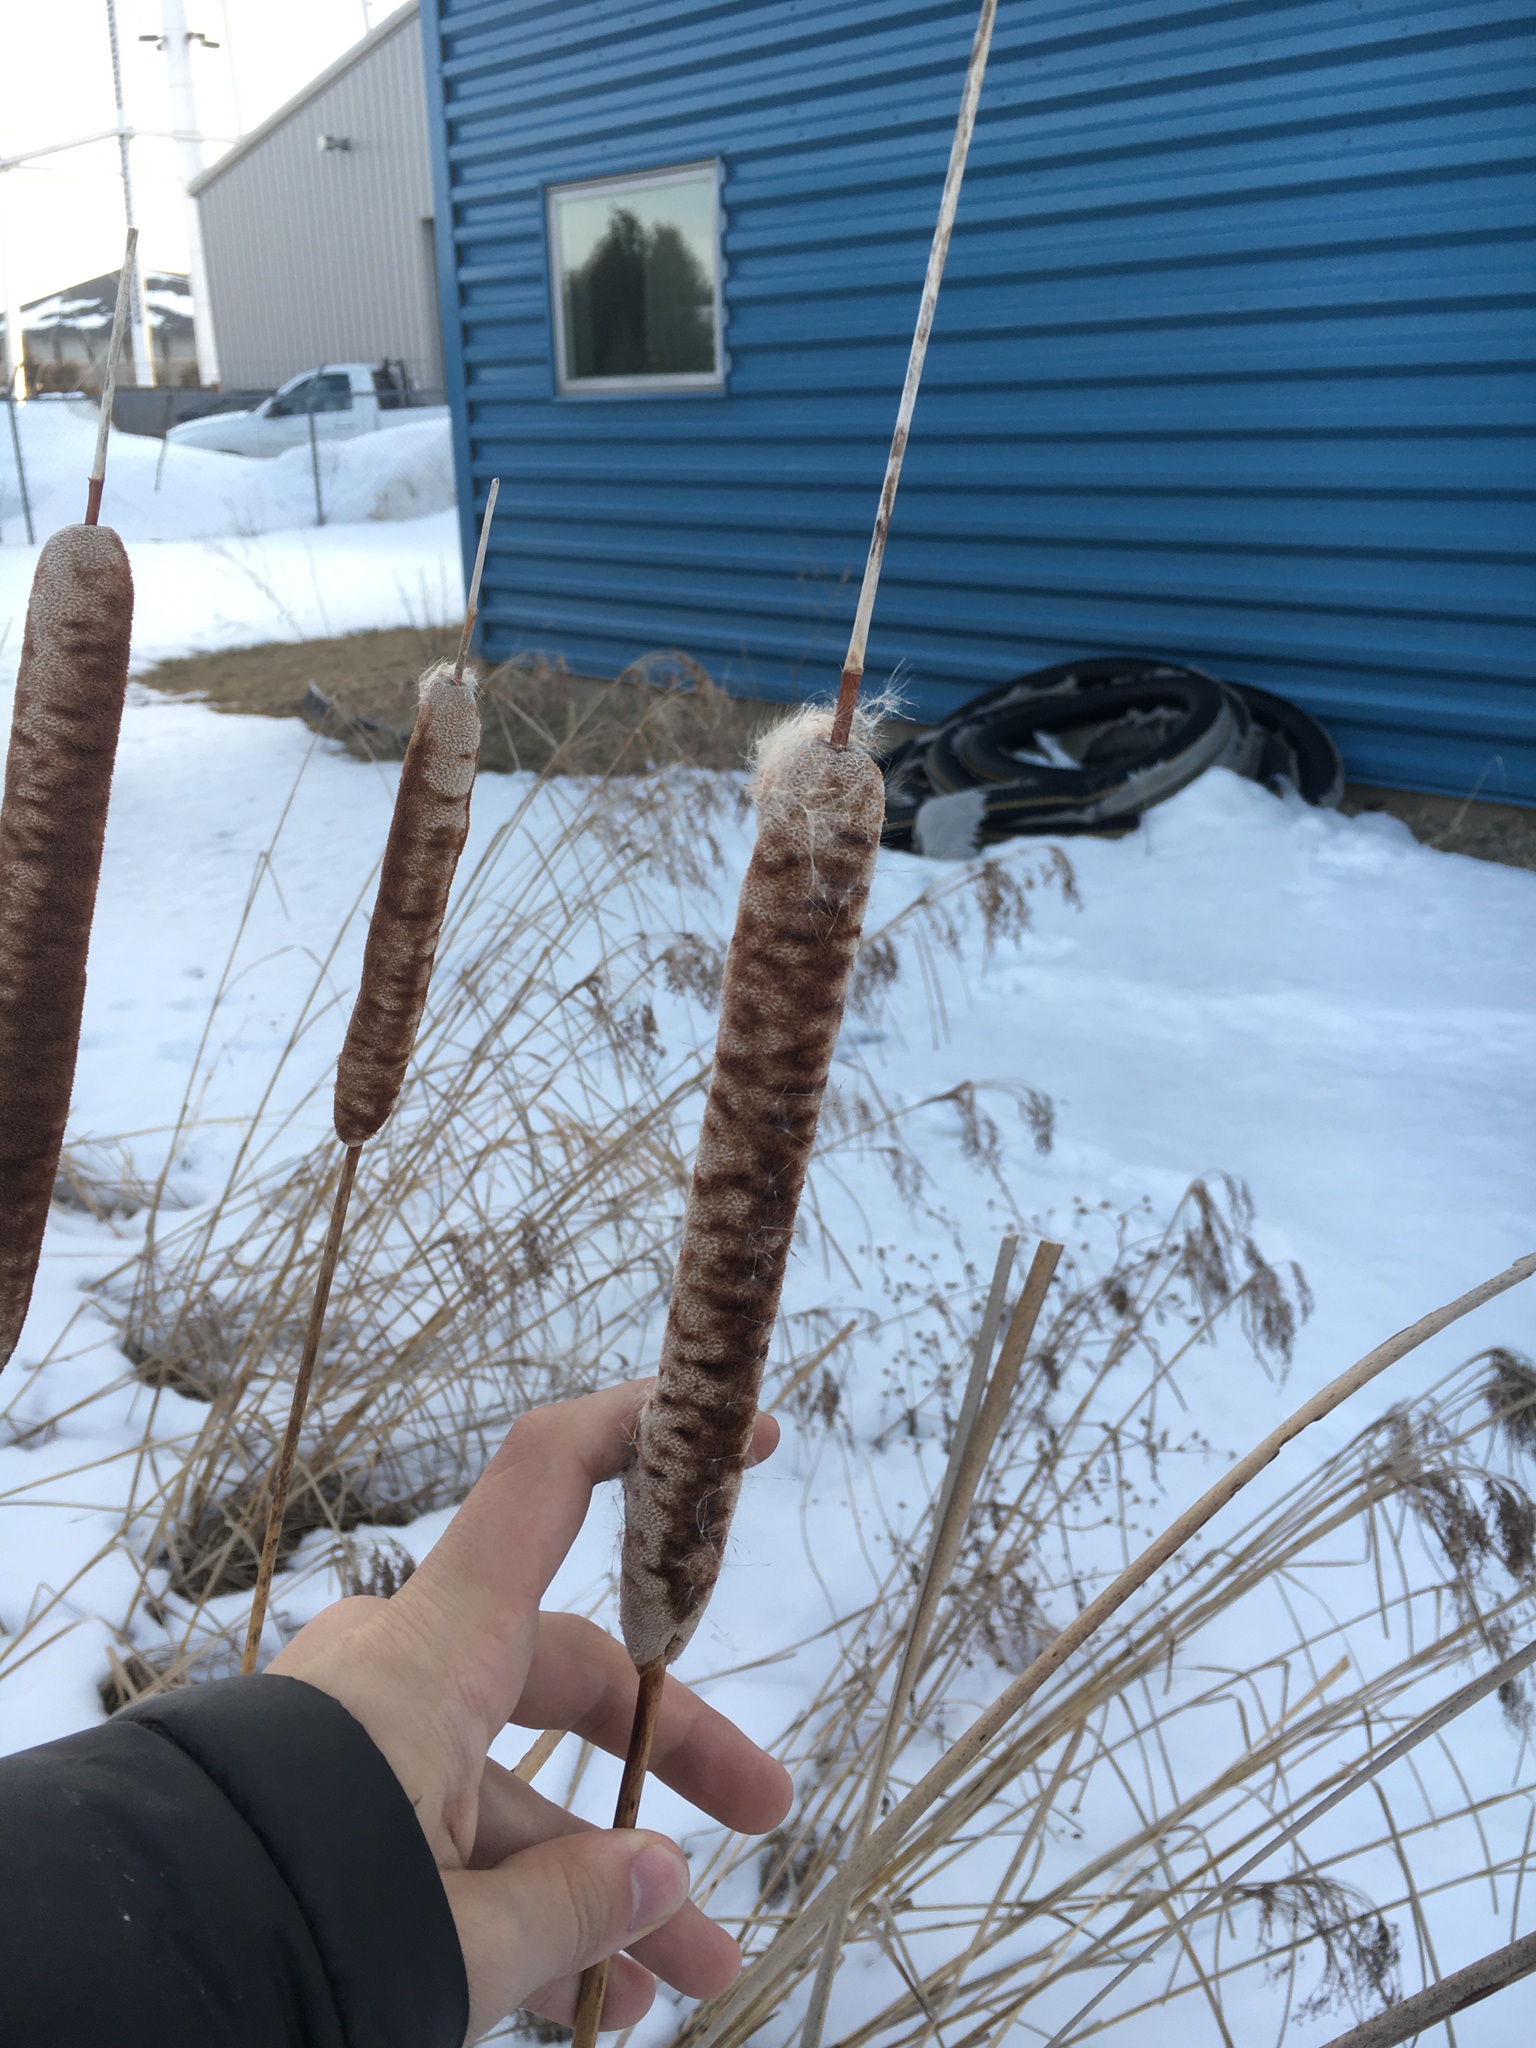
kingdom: Plantae
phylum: Tracheophyta
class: Liliopsida
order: Poales
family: Typhaceae
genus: Typha
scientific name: Typha angustifolia
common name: Lesser bulrush
